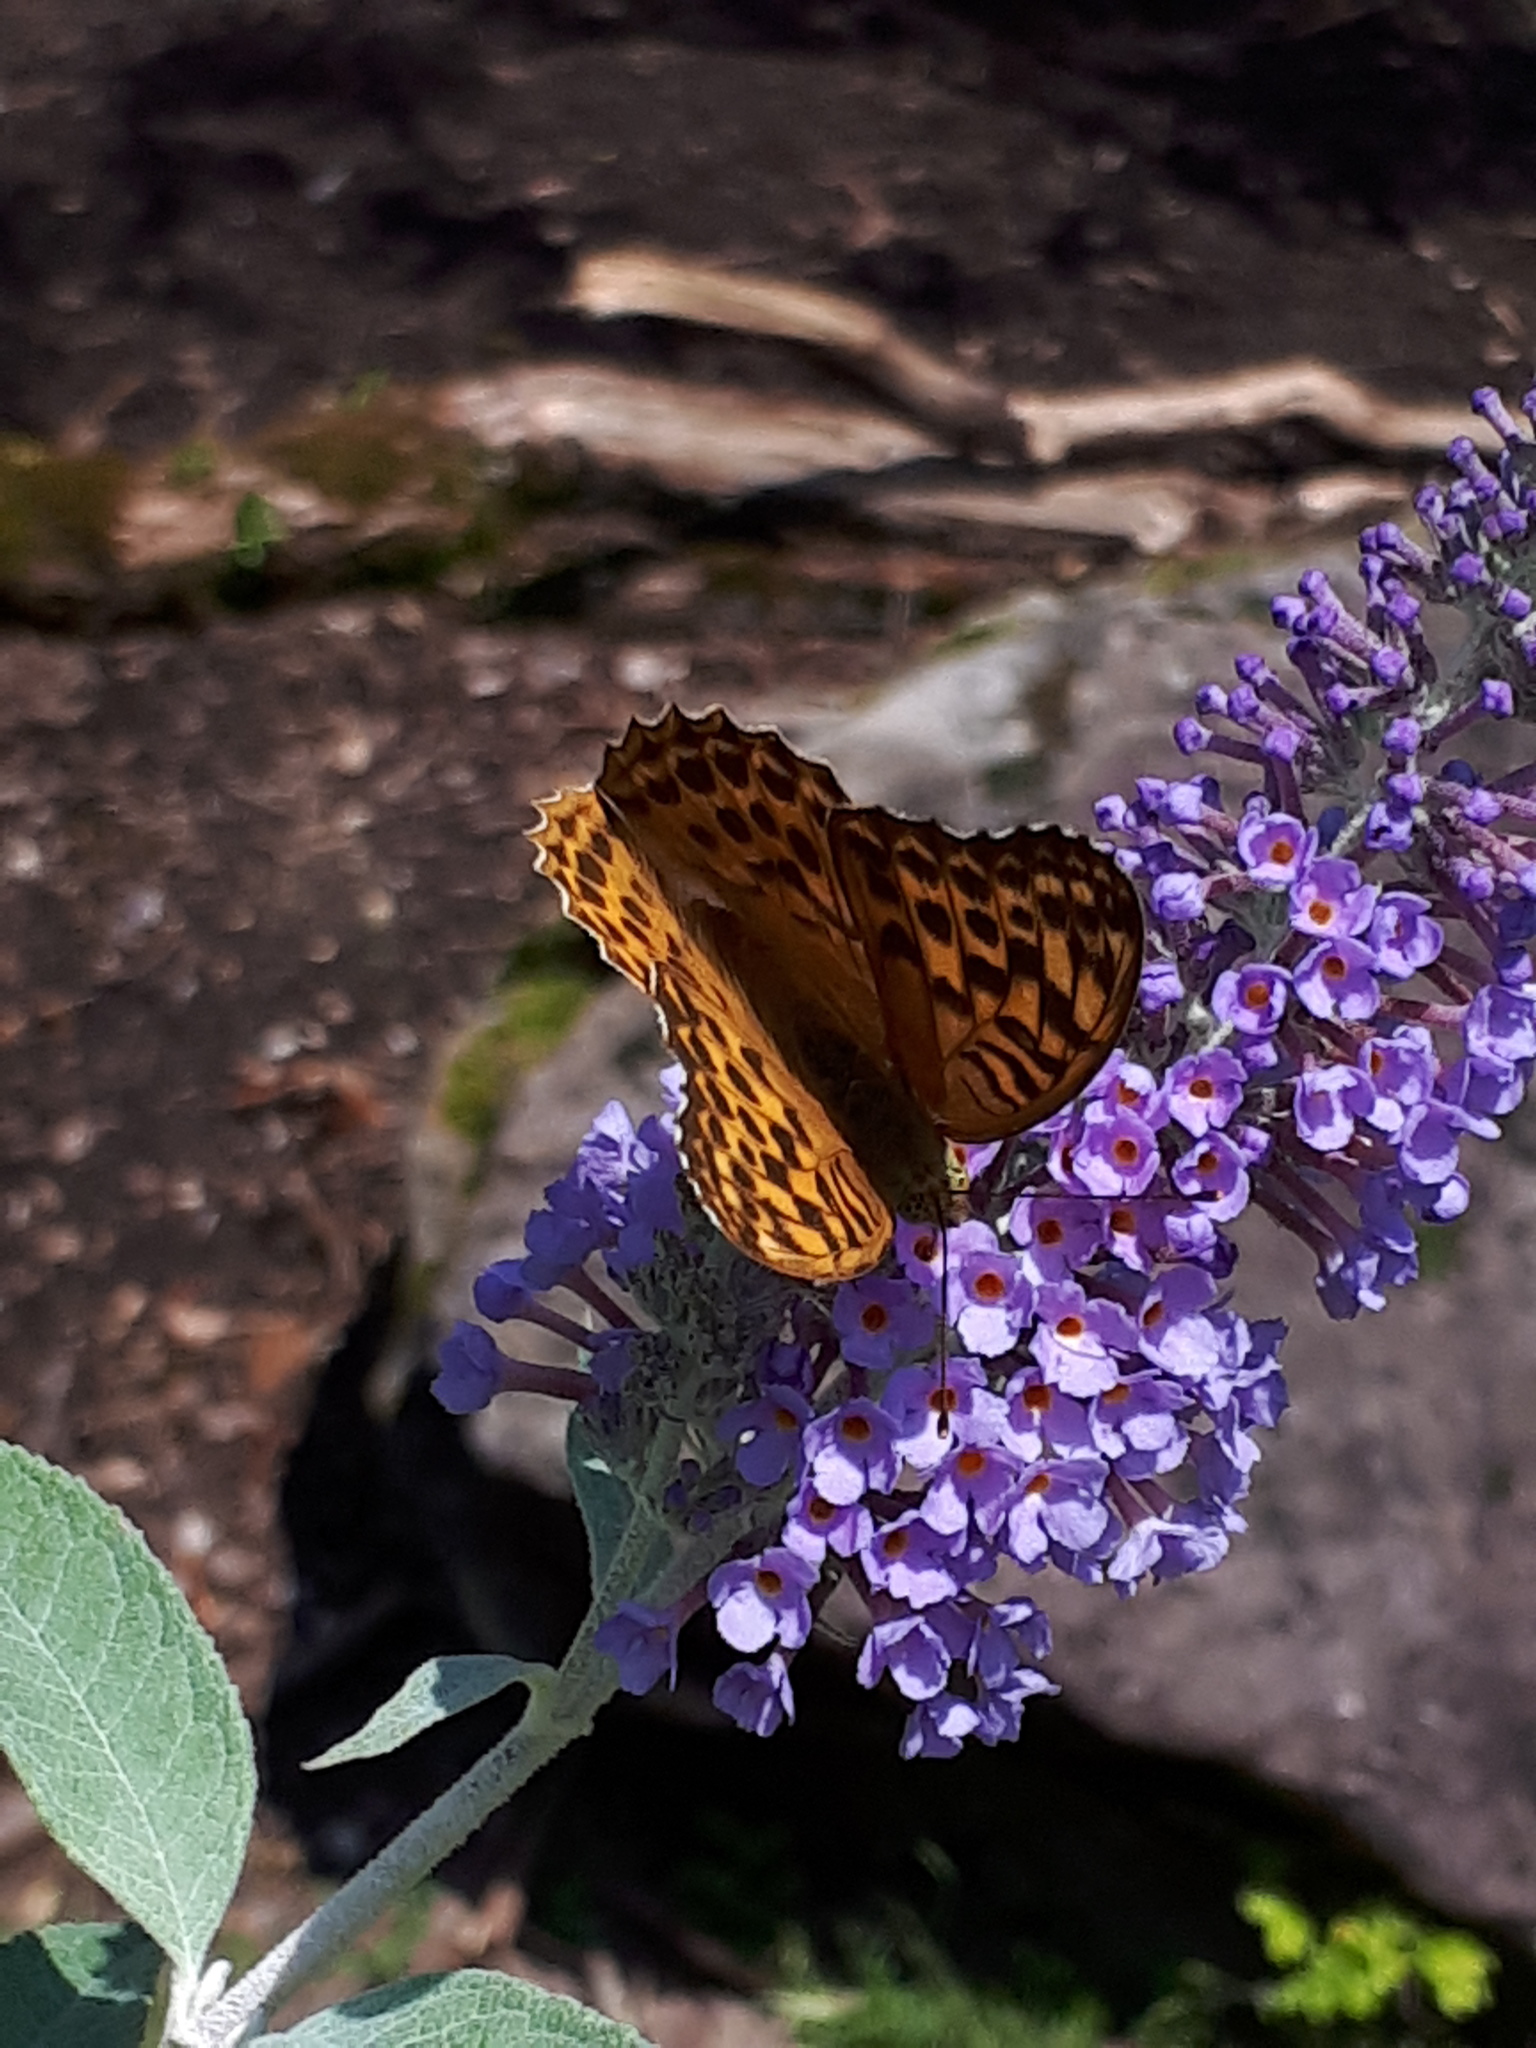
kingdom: Animalia
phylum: Arthropoda
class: Insecta
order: Lepidoptera
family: Nymphalidae
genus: Argynnis
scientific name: Argynnis paphia
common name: Silver-washed fritillary
